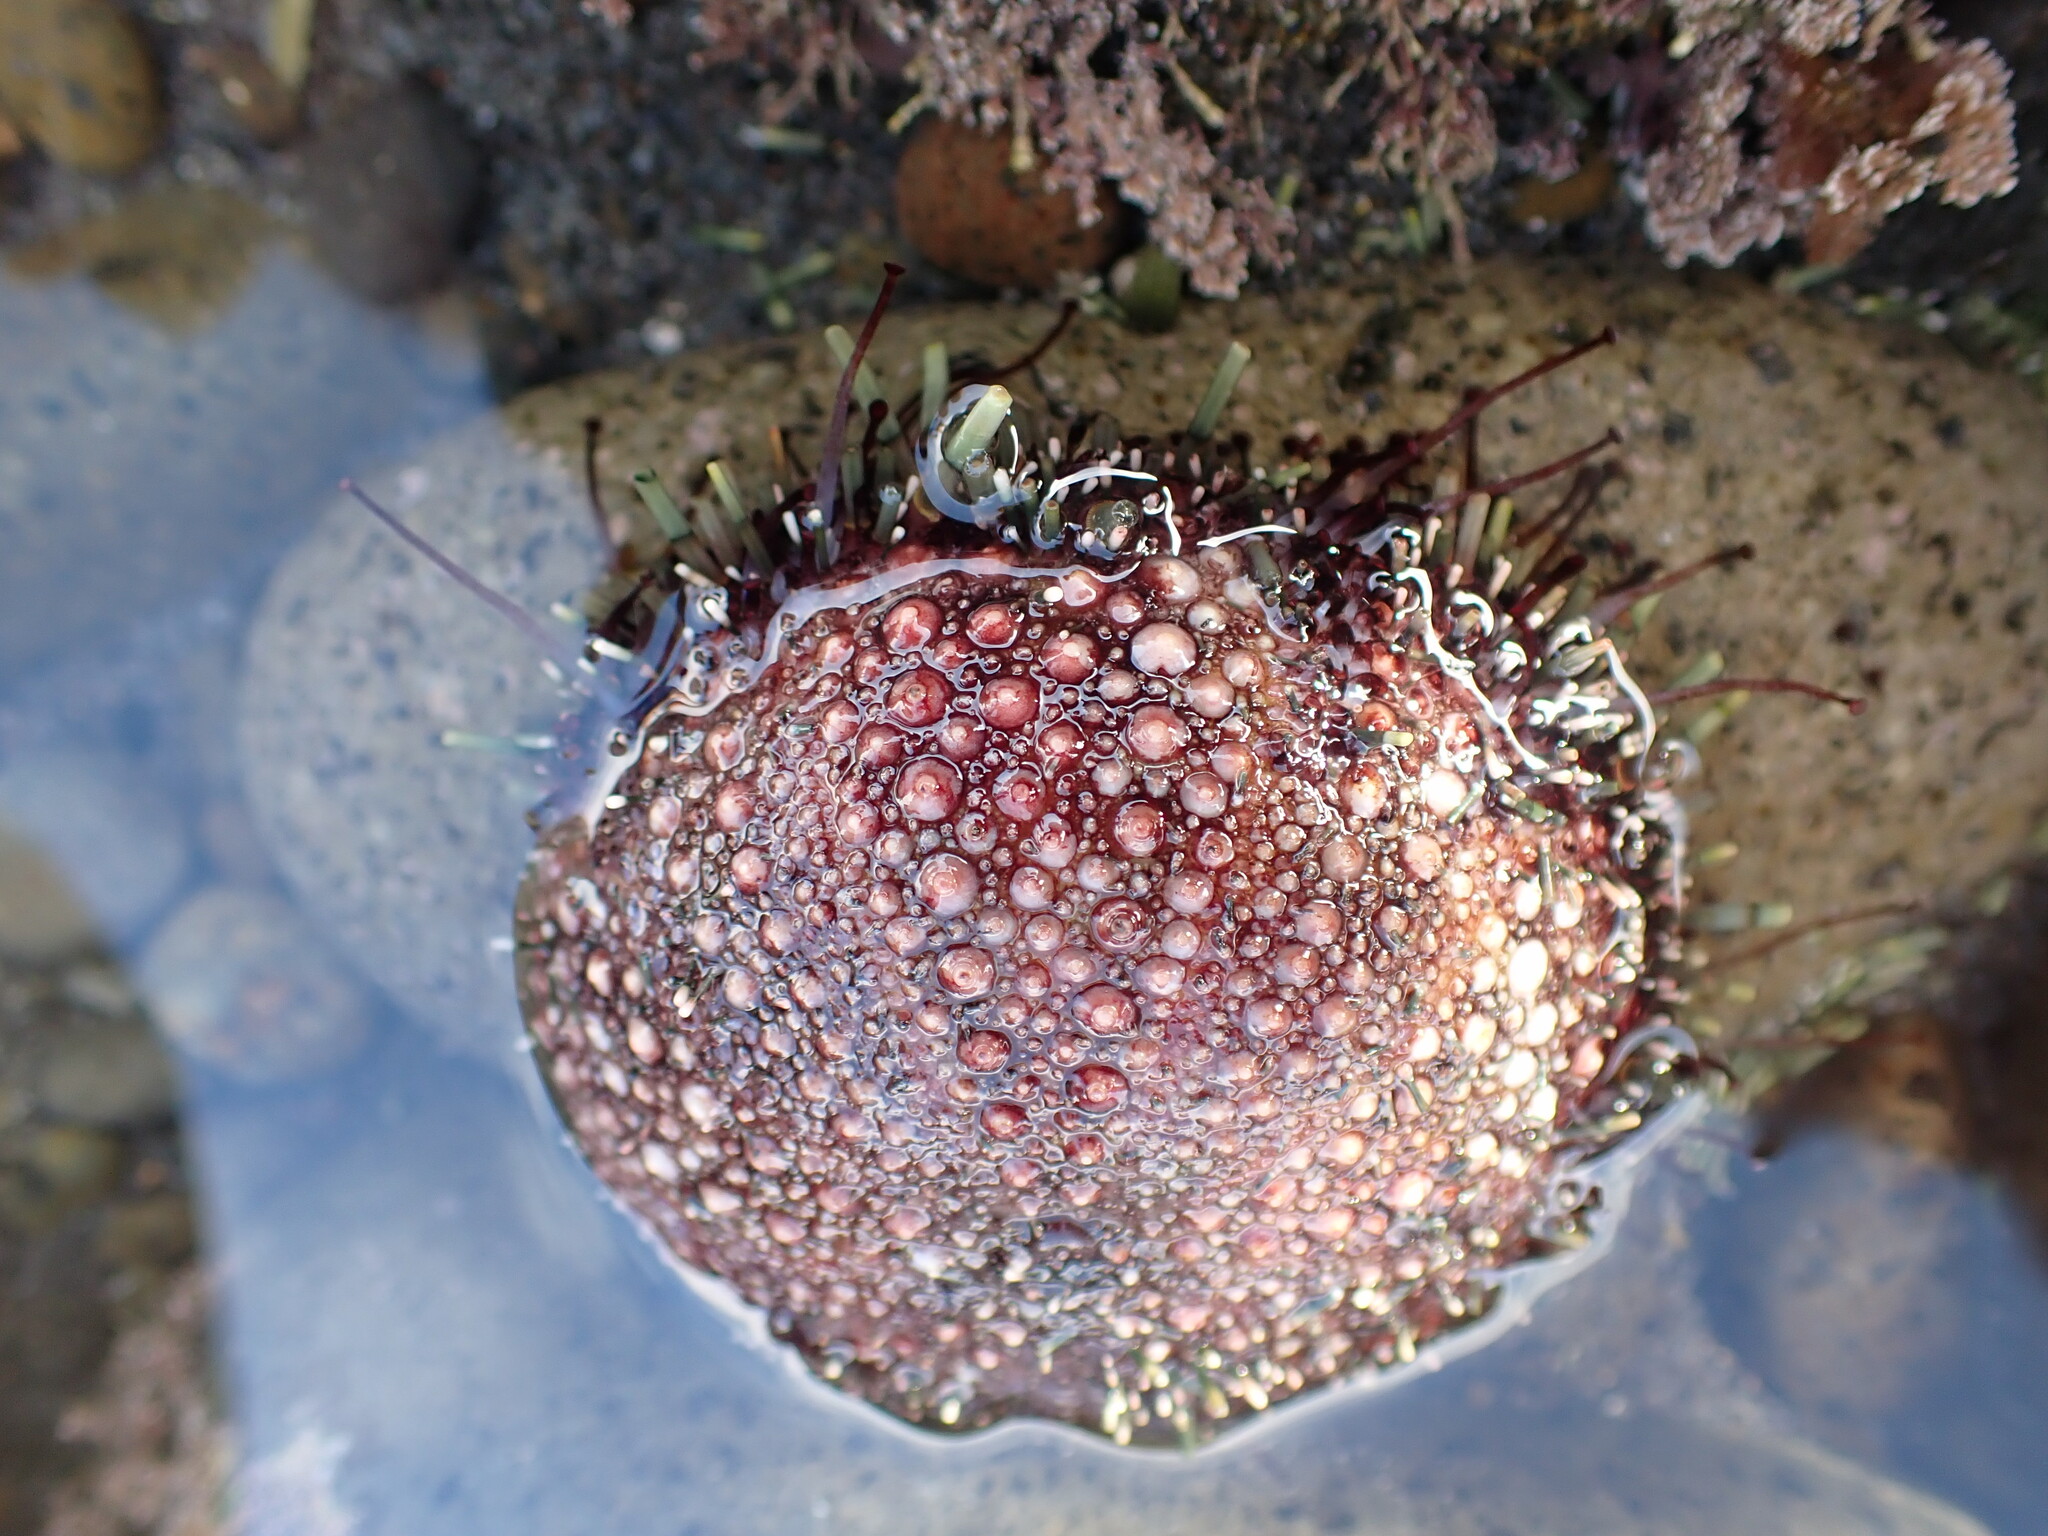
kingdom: Animalia
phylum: Echinodermata
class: Echinoidea
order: Camarodonta
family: Echinometridae
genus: Evechinus
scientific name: Evechinus chloroticus
